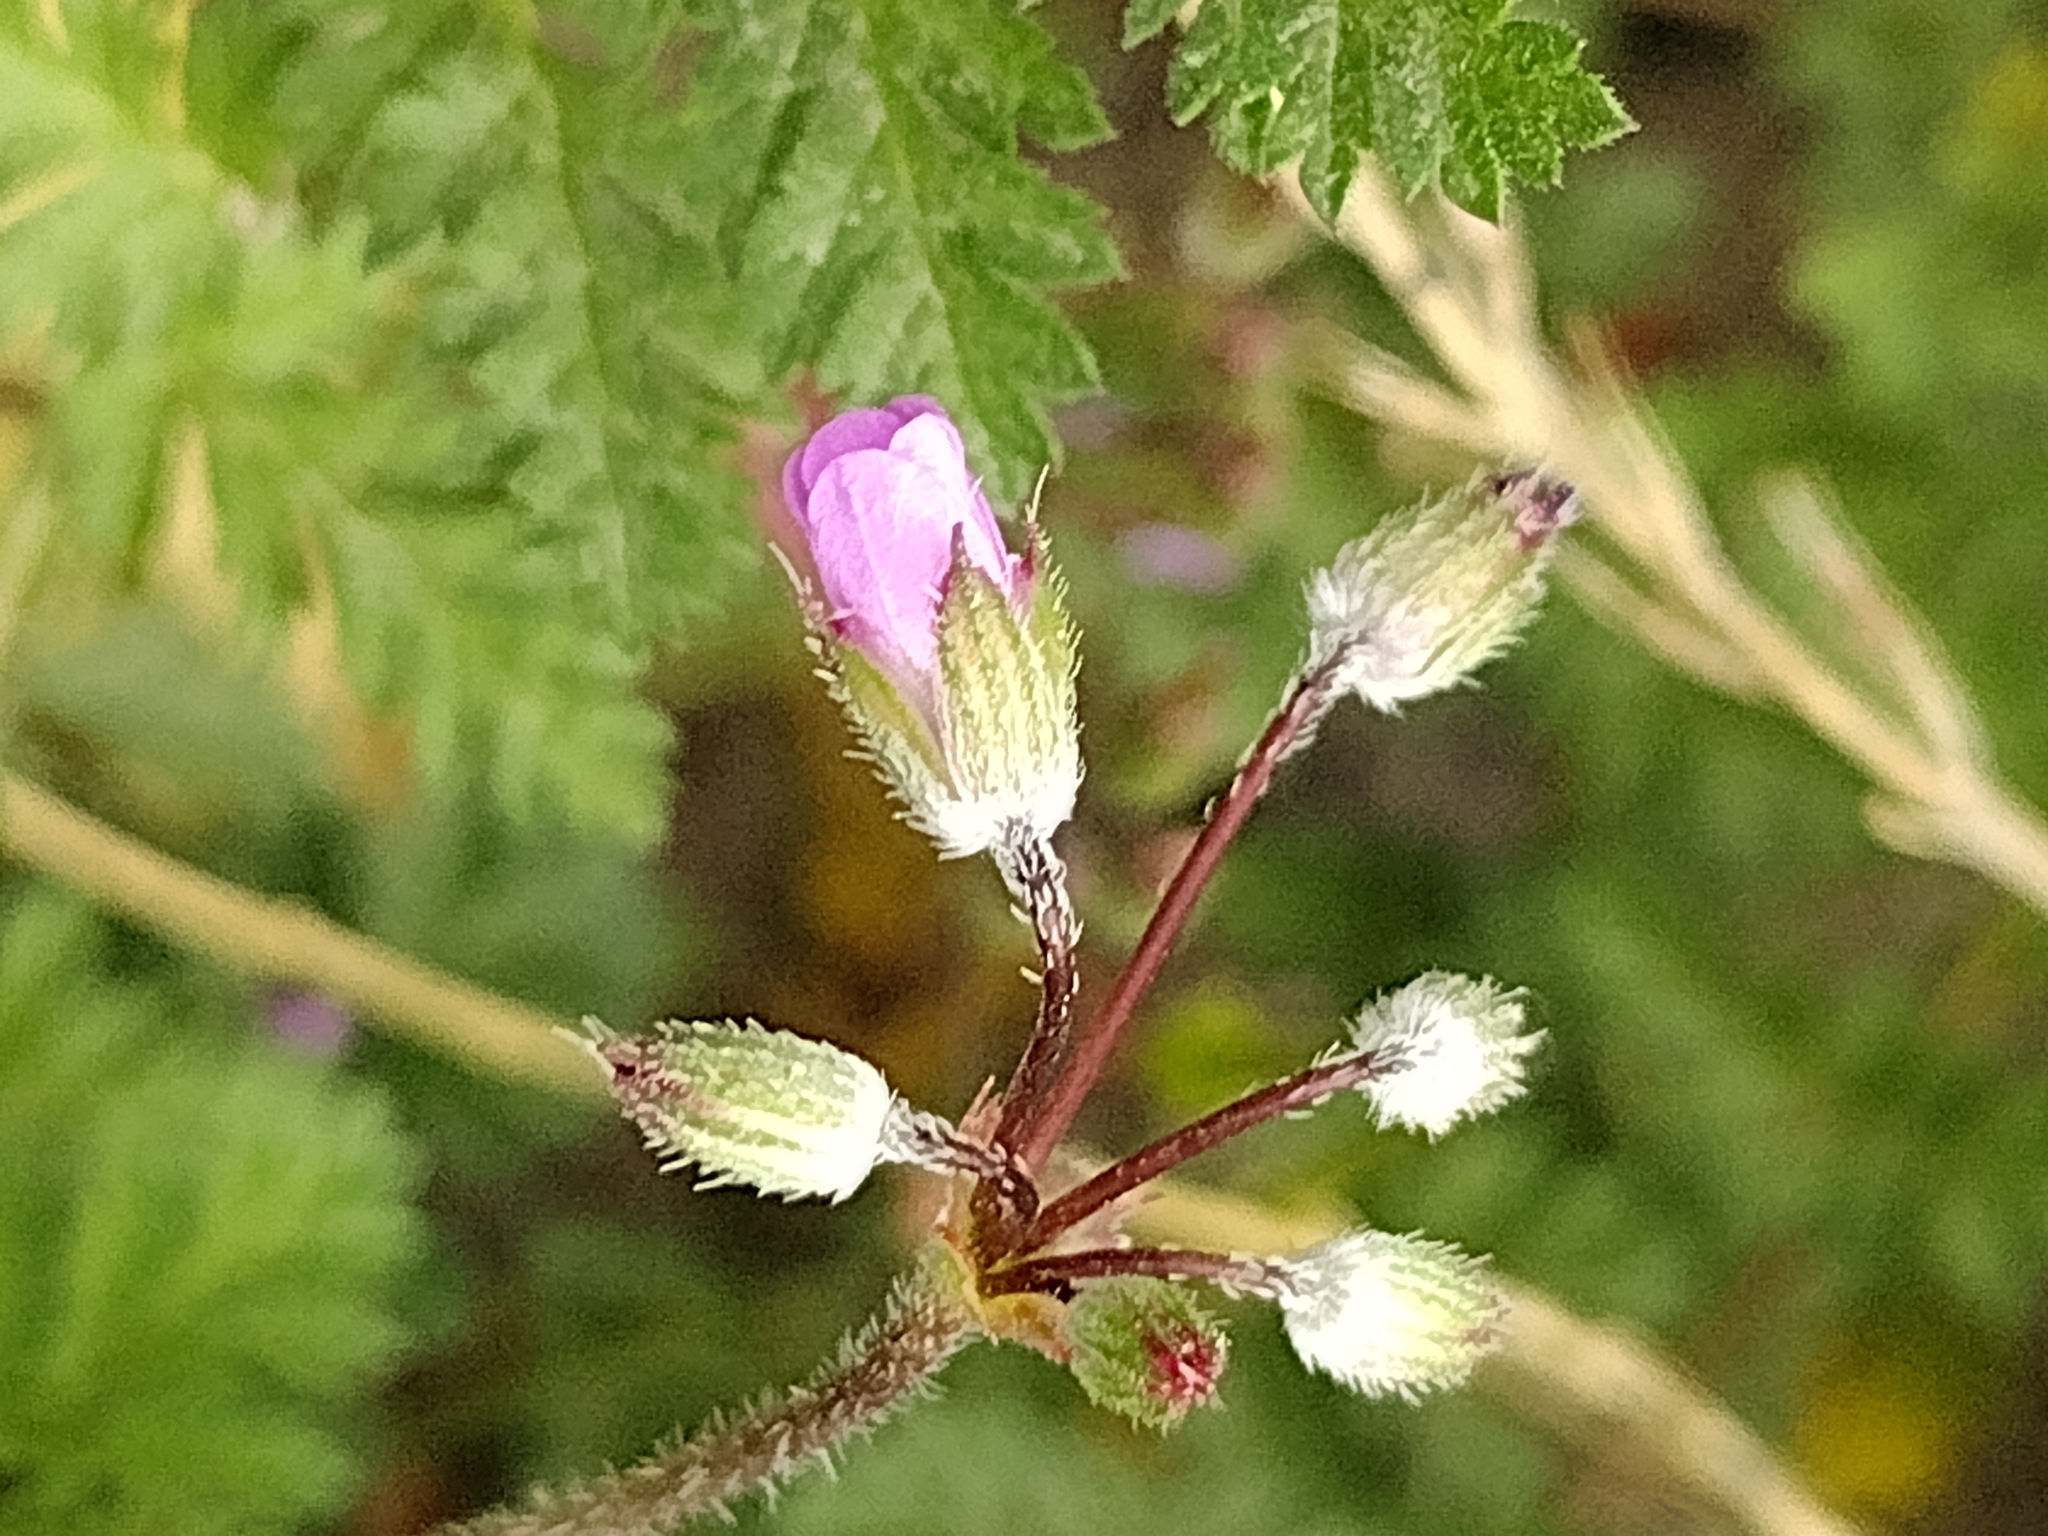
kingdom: Plantae
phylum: Tracheophyta
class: Magnoliopsida
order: Geraniales
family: Geraniaceae
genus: Erodium
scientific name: Erodium cicutarium
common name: Common stork's-bill
